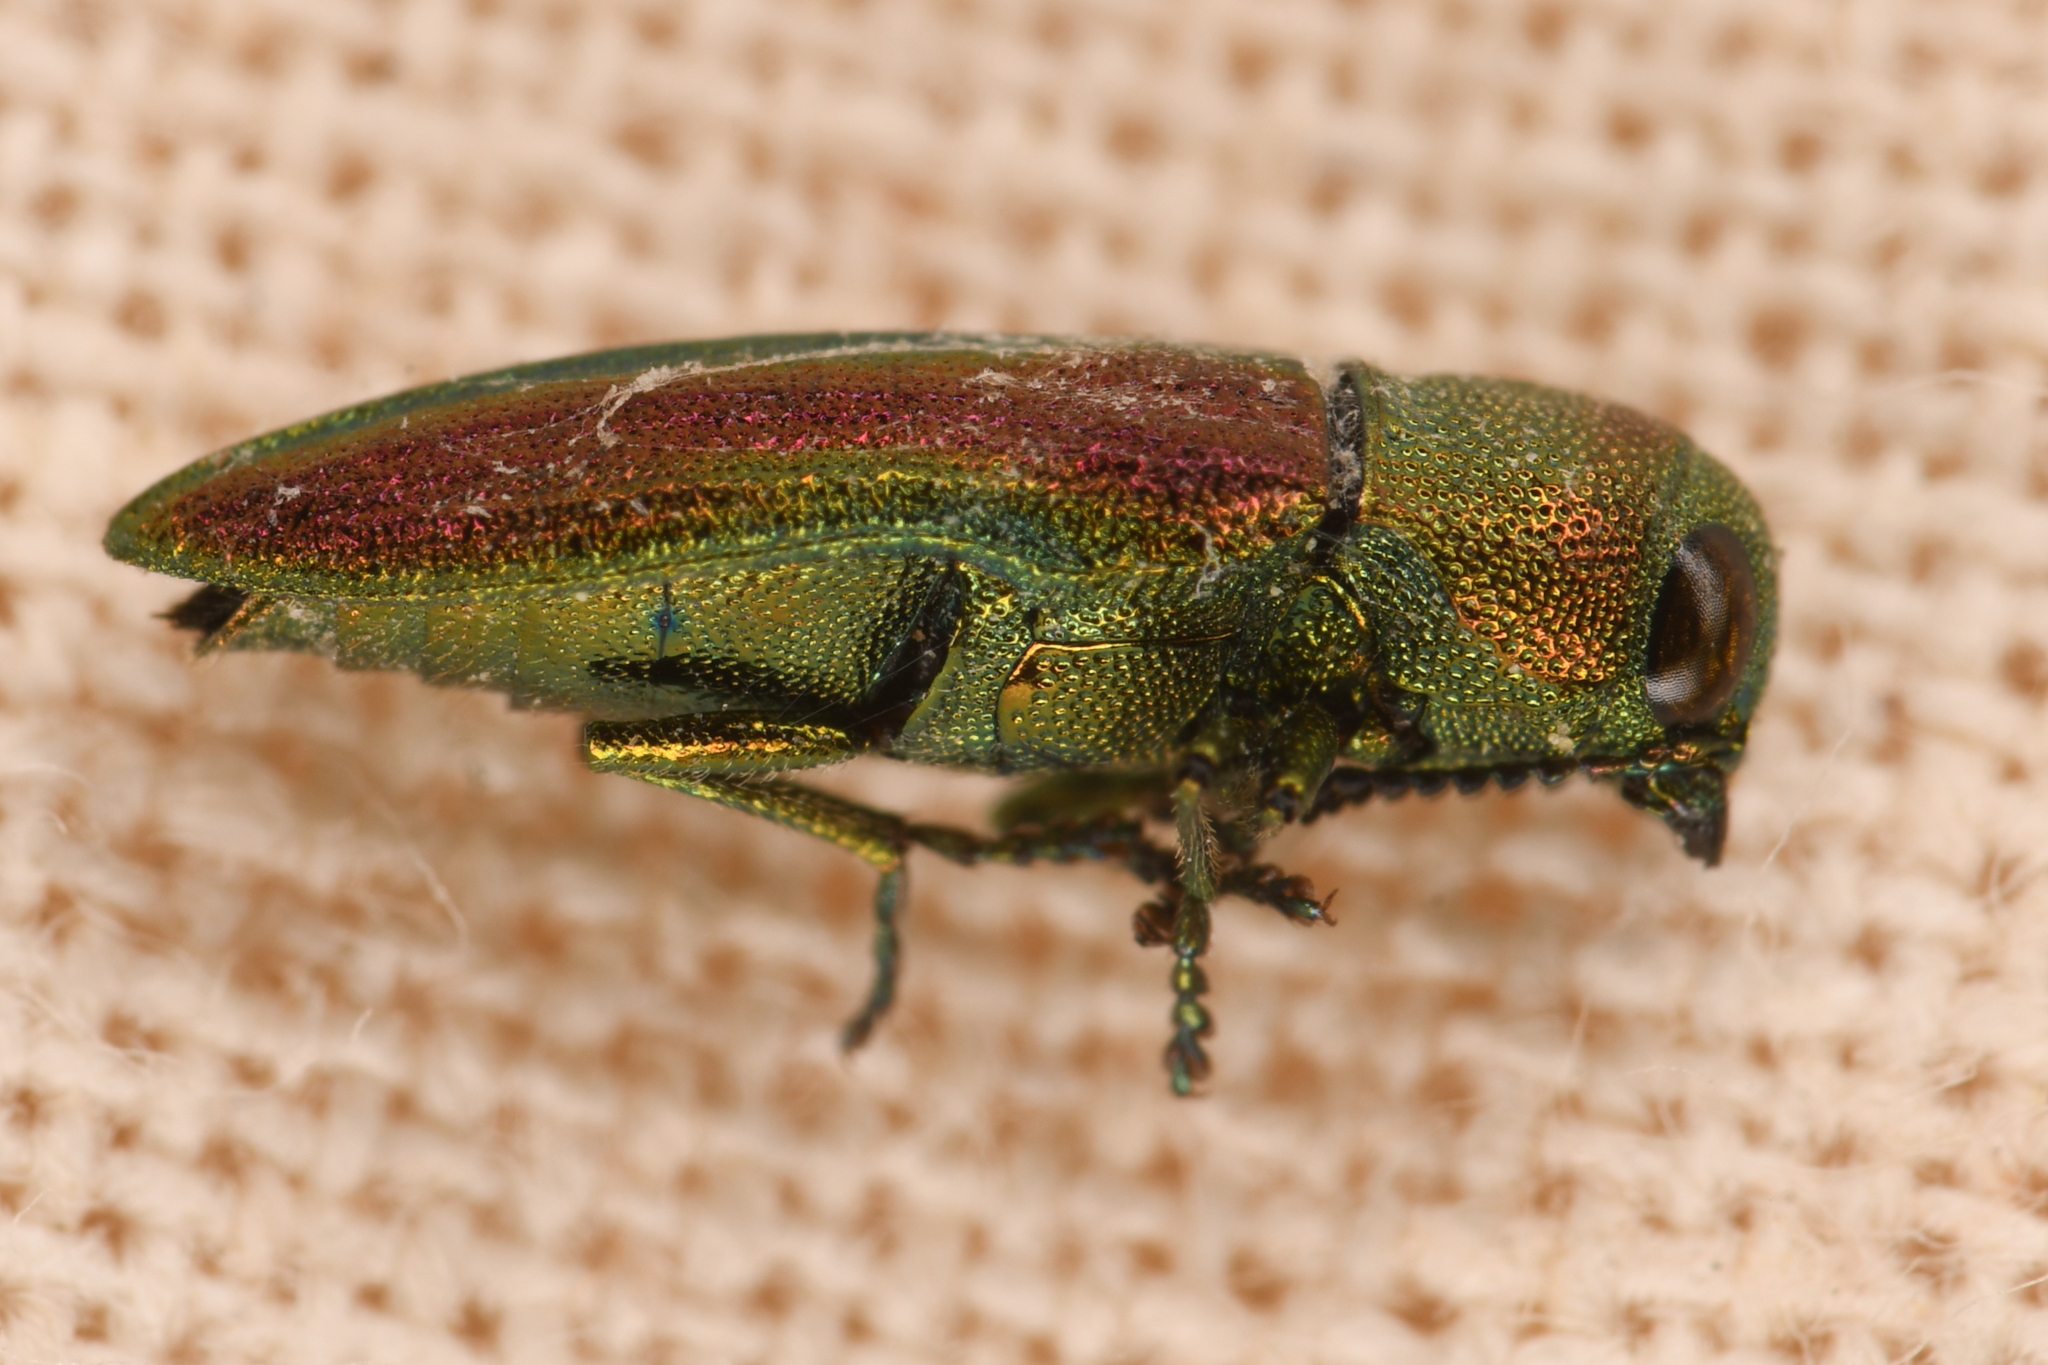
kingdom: Animalia
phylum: Arthropoda
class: Insecta
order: Coleoptera
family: Buprestidae
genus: Chrysophana
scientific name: Chrysophana placida
